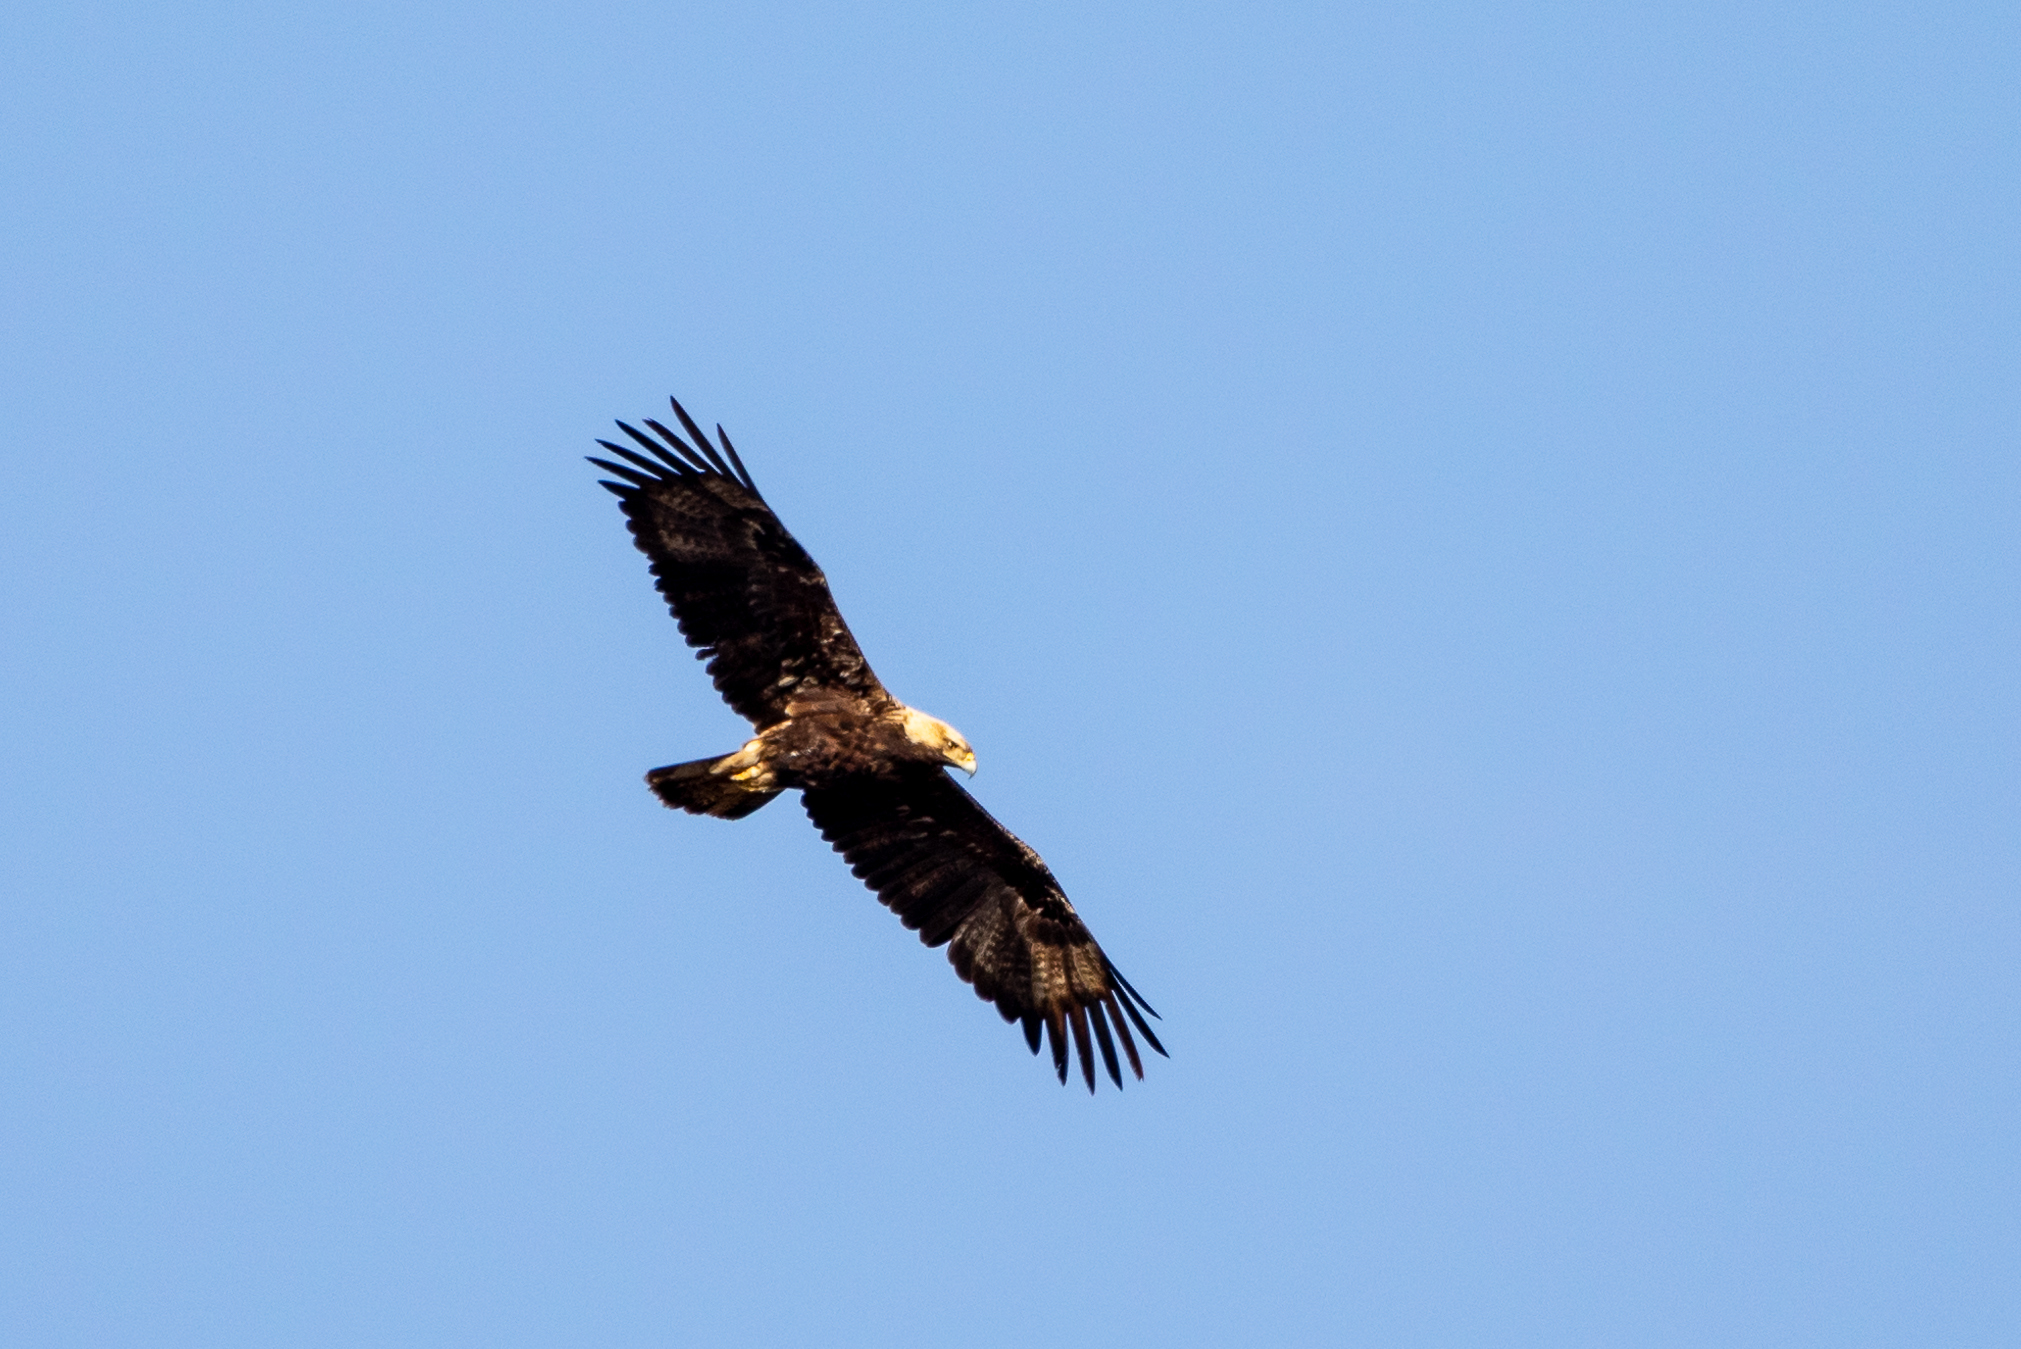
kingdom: Animalia
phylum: Chordata
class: Aves
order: Accipitriformes
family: Accipitridae
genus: Aquila
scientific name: Aquila heliaca
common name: Eastern imperial eagle
